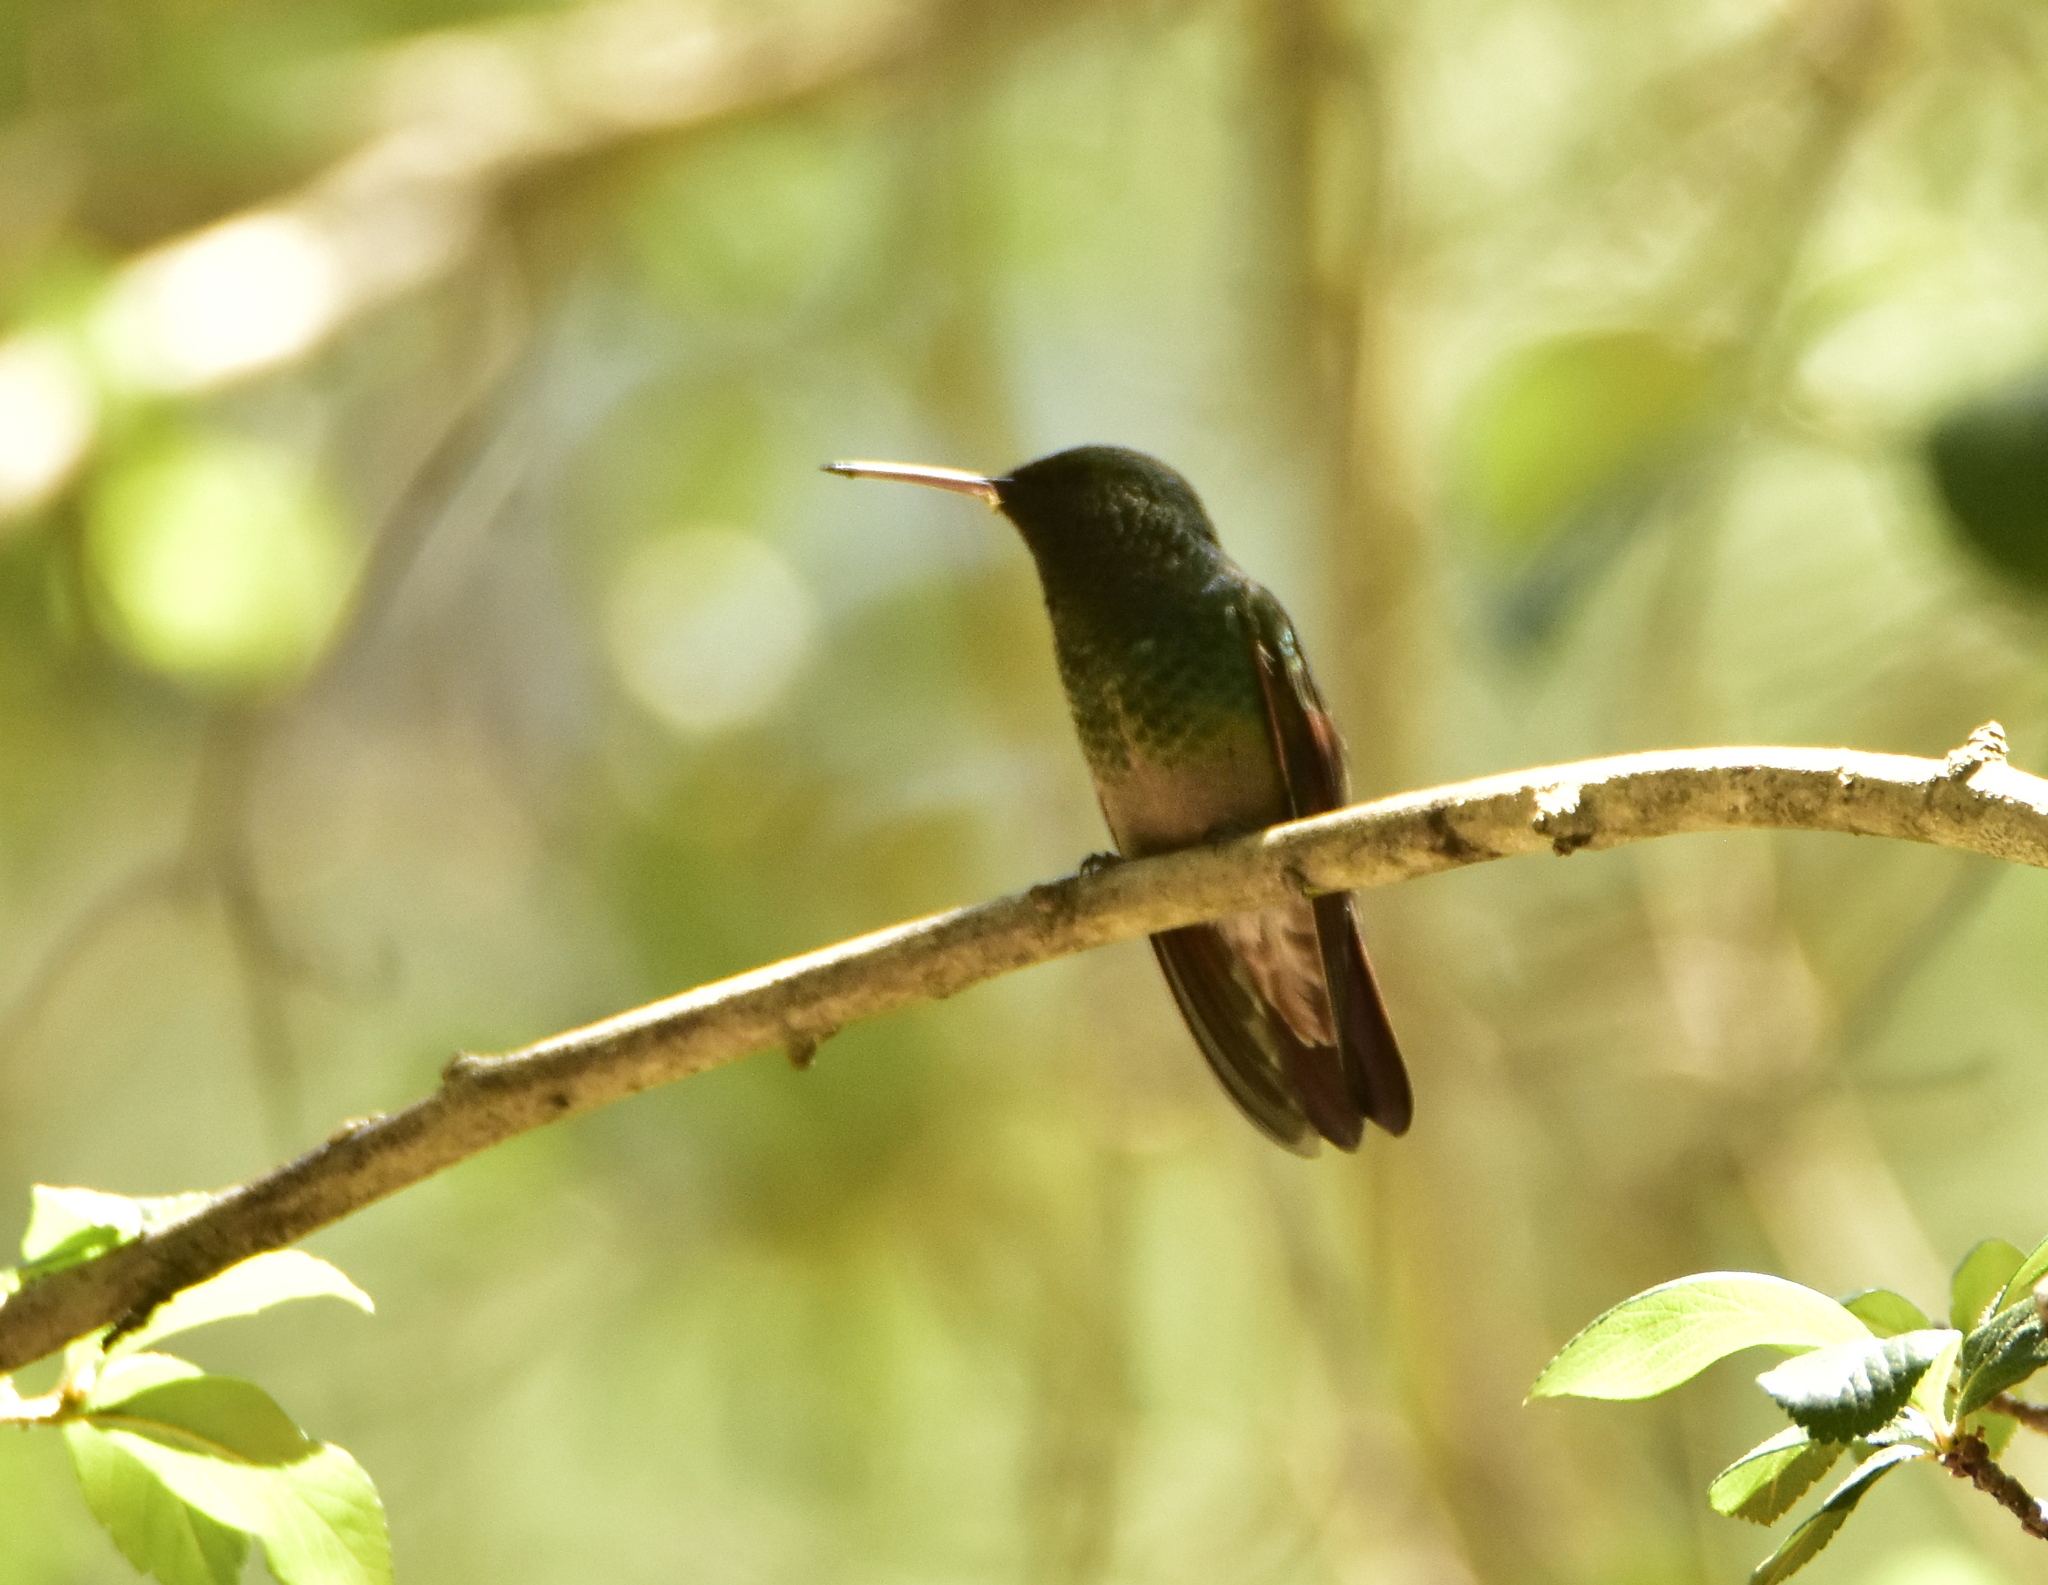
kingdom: Animalia
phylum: Chordata
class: Aves
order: Apodiformes
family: Trochilidae
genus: Saucerottia
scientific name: Saucerottia beryllina
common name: Berylline hummingbird
